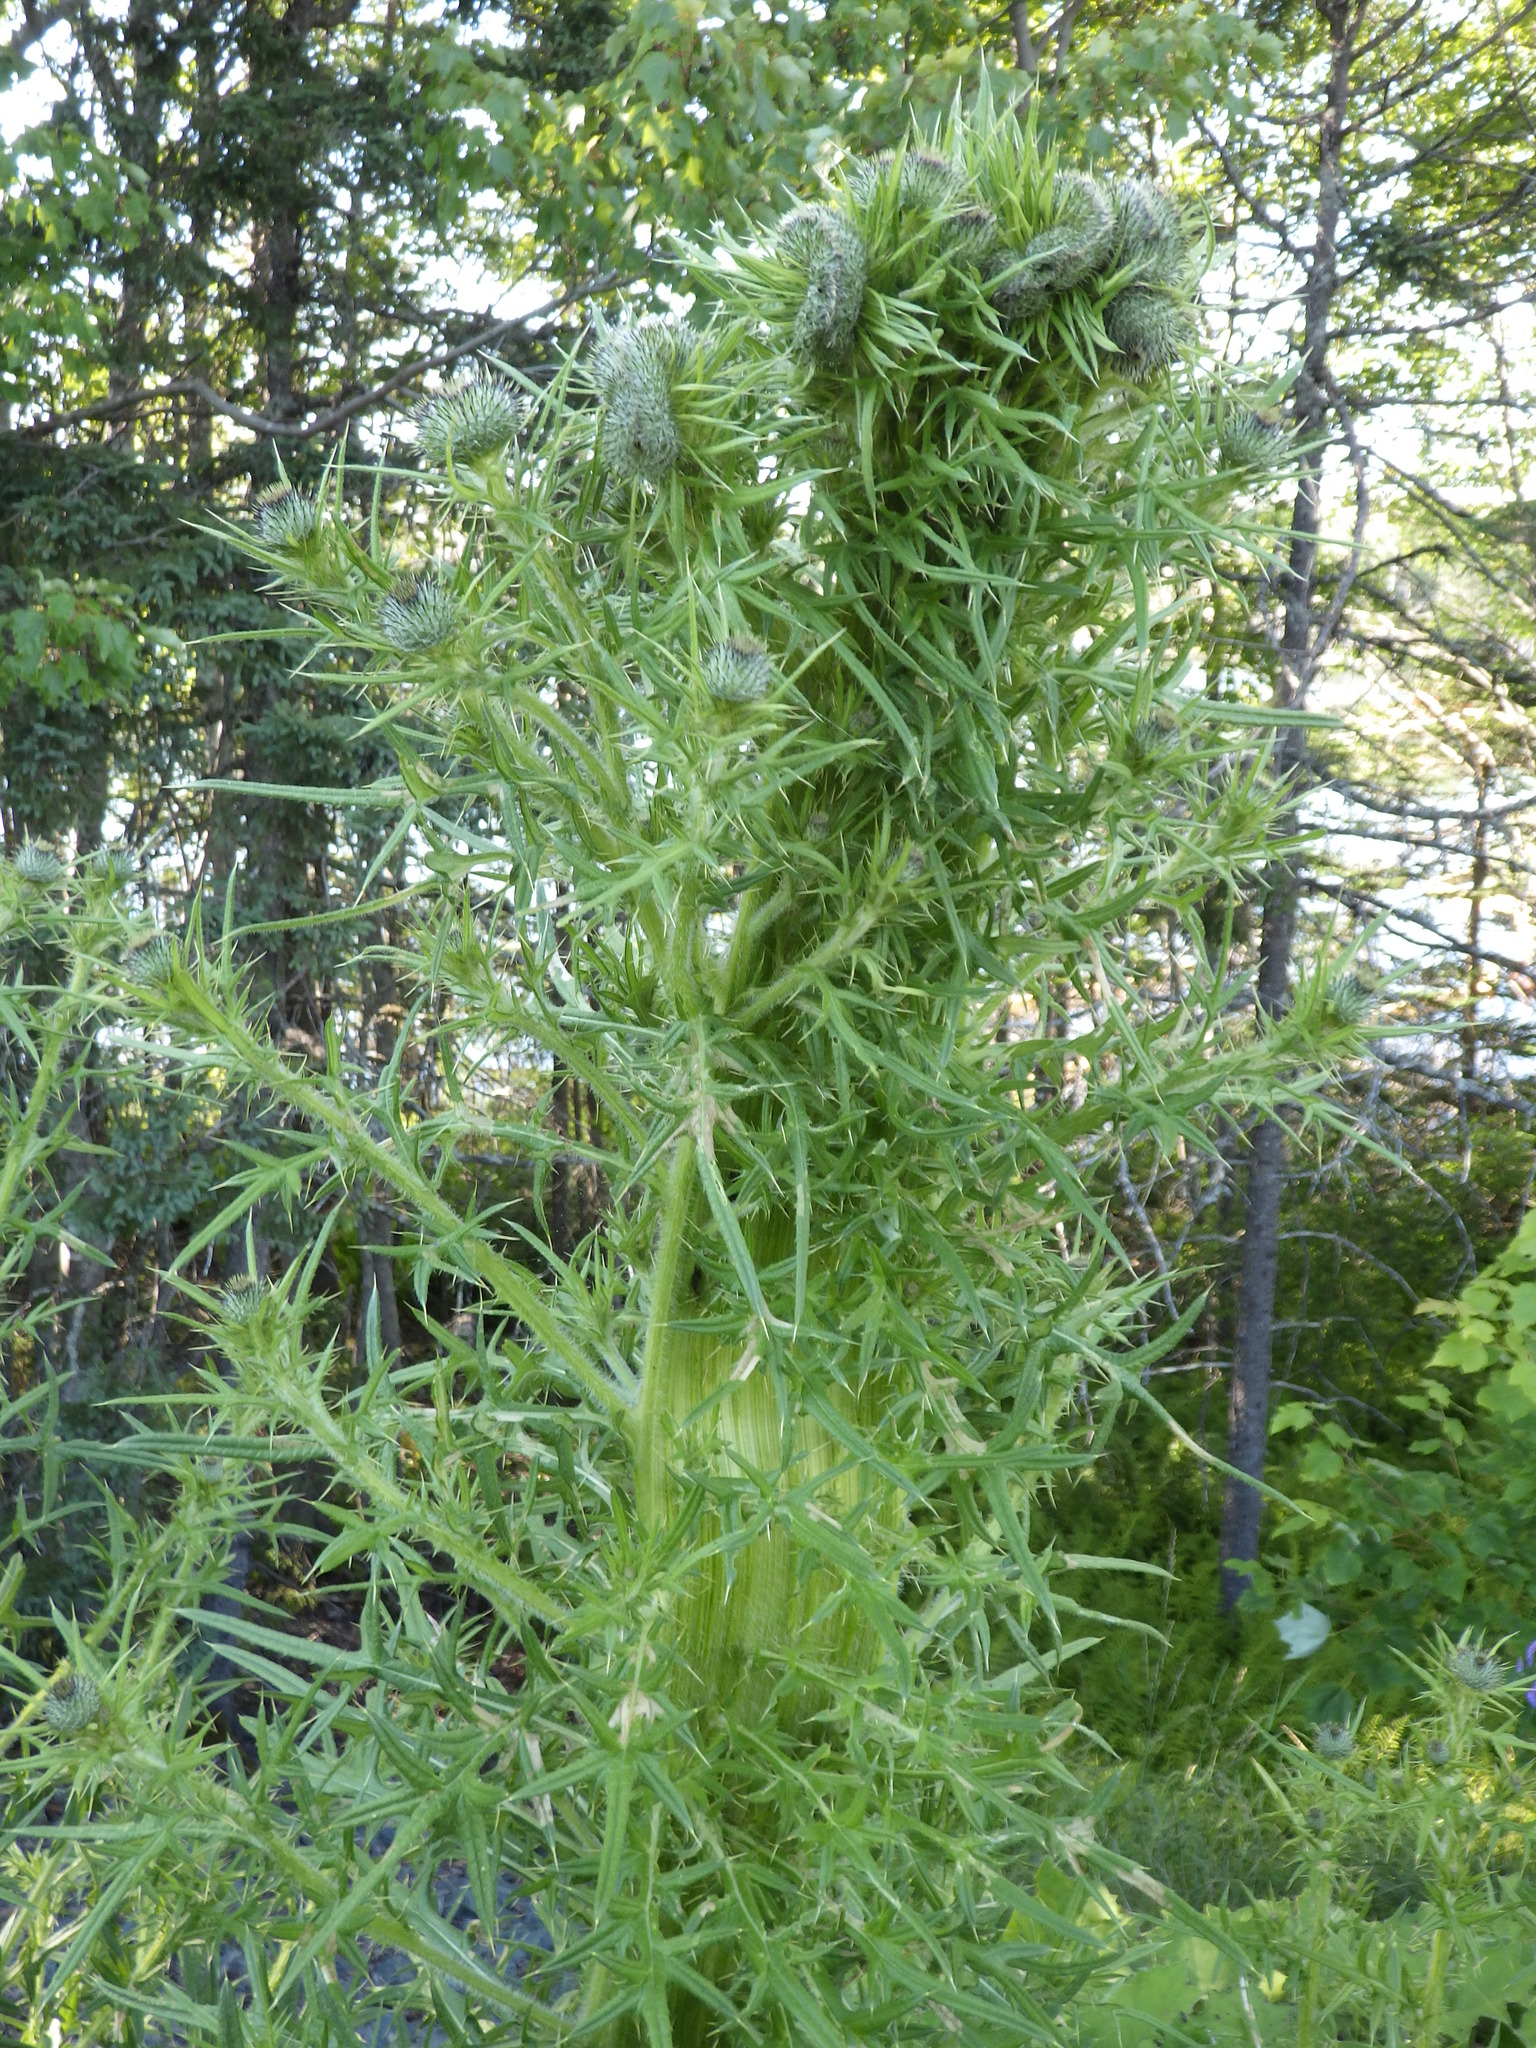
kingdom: Plantae
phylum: Tracheophyta
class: Magnoliopsida
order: Asterales
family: Asteraceae
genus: Cirsium
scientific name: Cirsium vulgare
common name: Bull thistle
